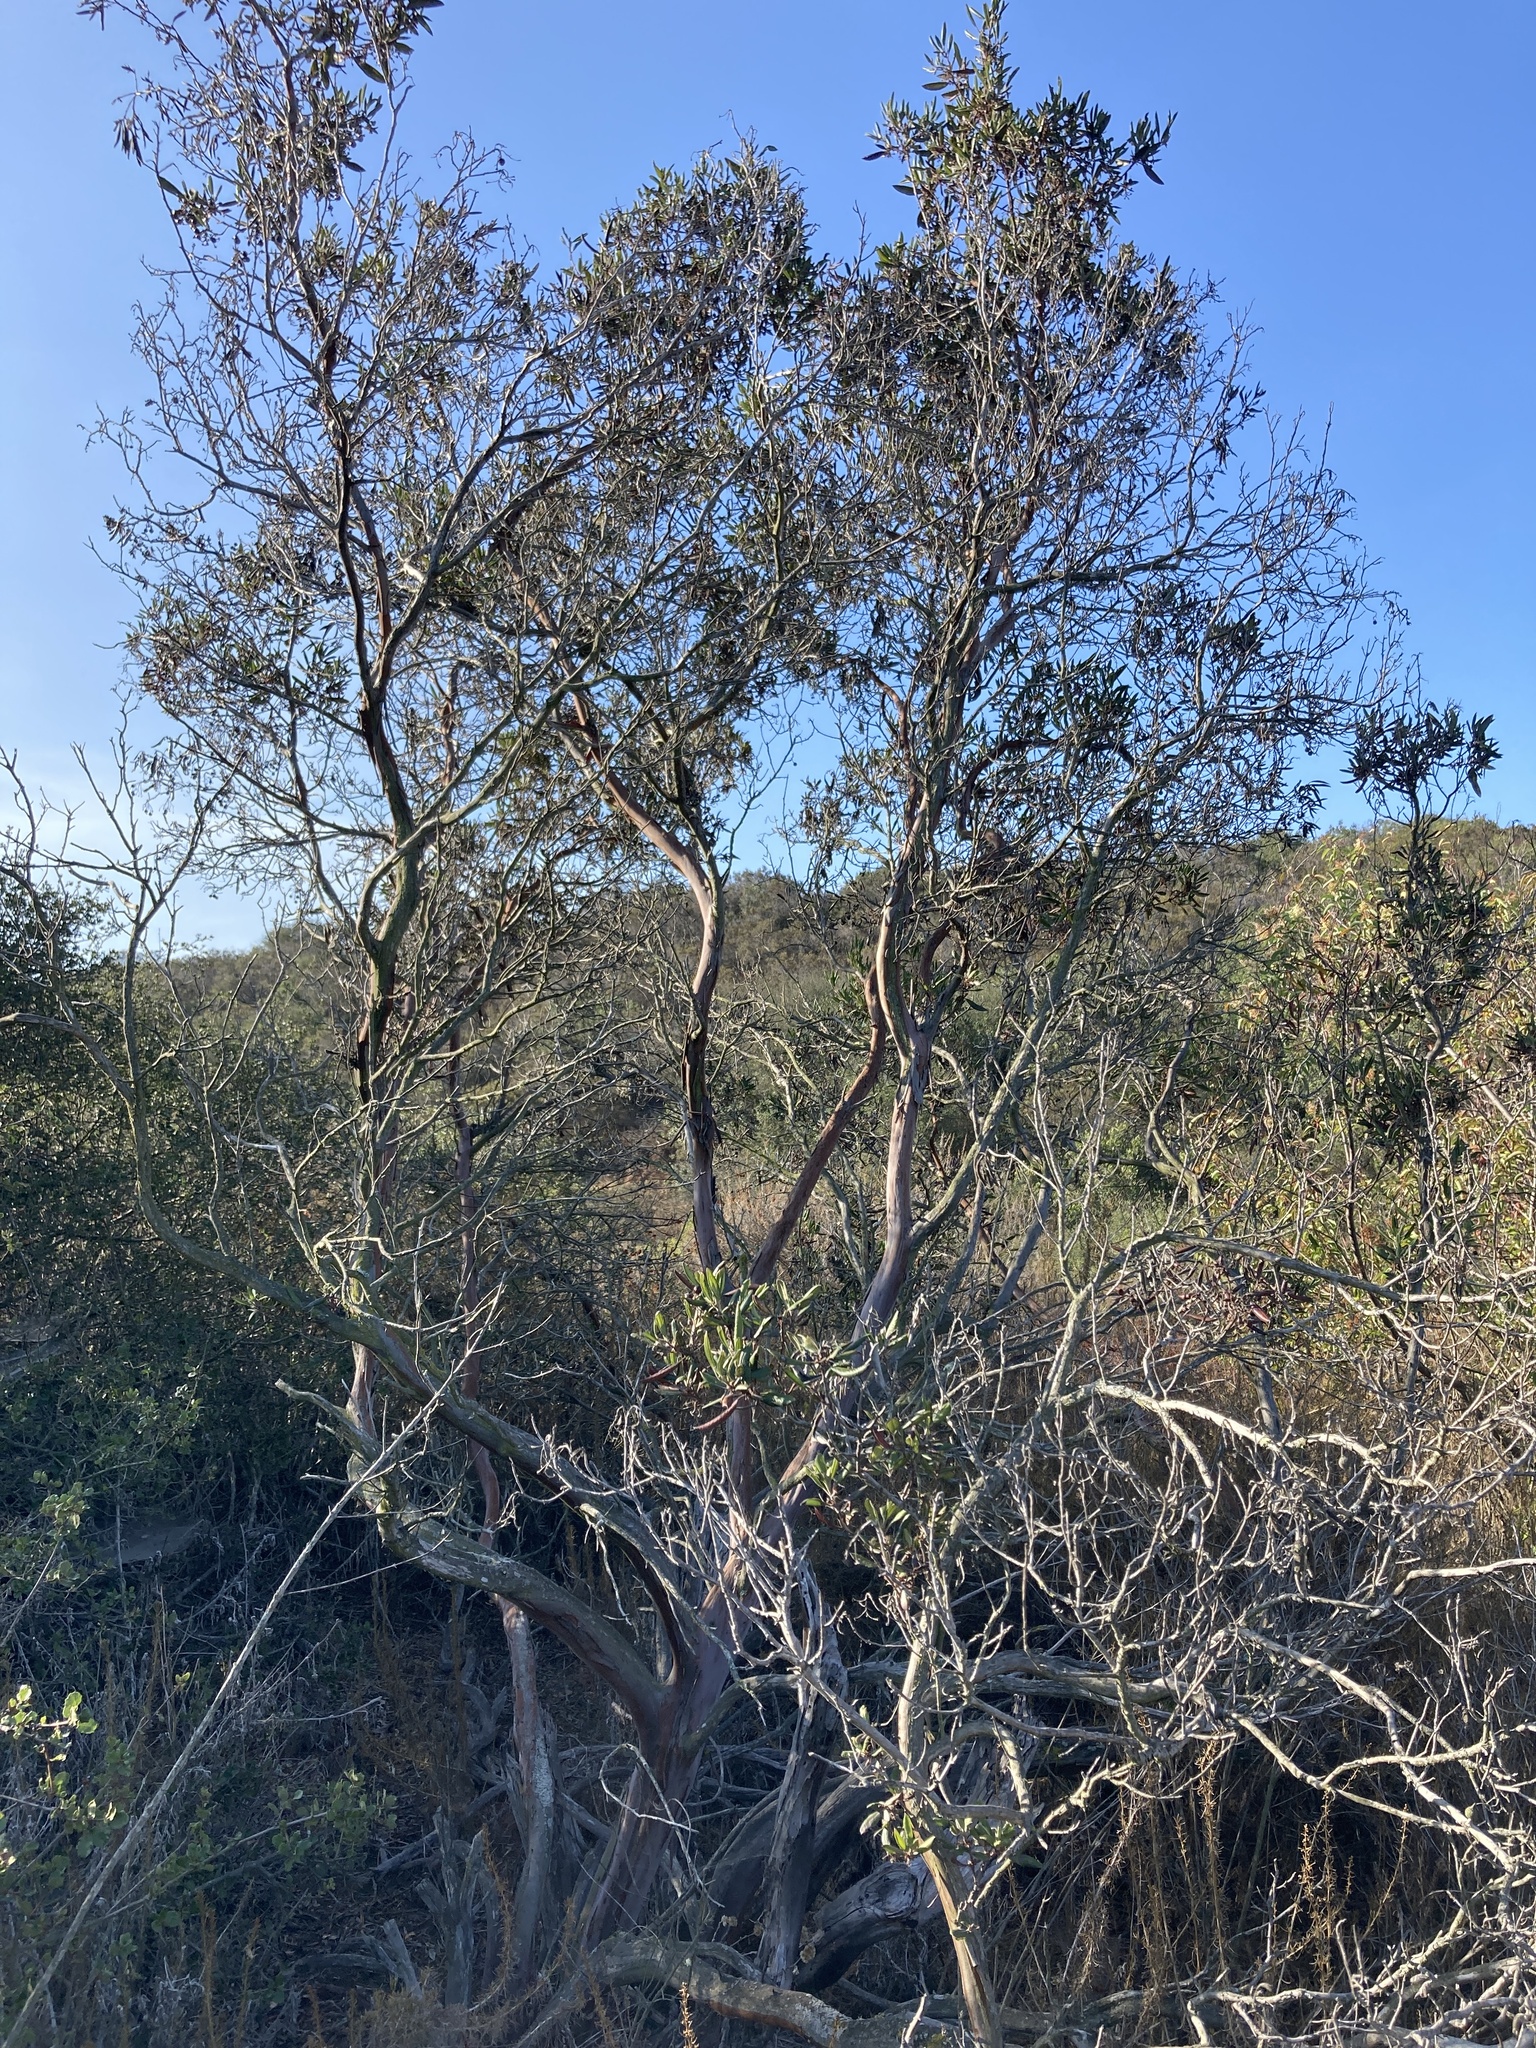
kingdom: Plantae
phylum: Tracheophyta
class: Magnoliopsida
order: Ericales
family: Ericaceae
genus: Arctostaphylos
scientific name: Arctostaphylos bicolor
